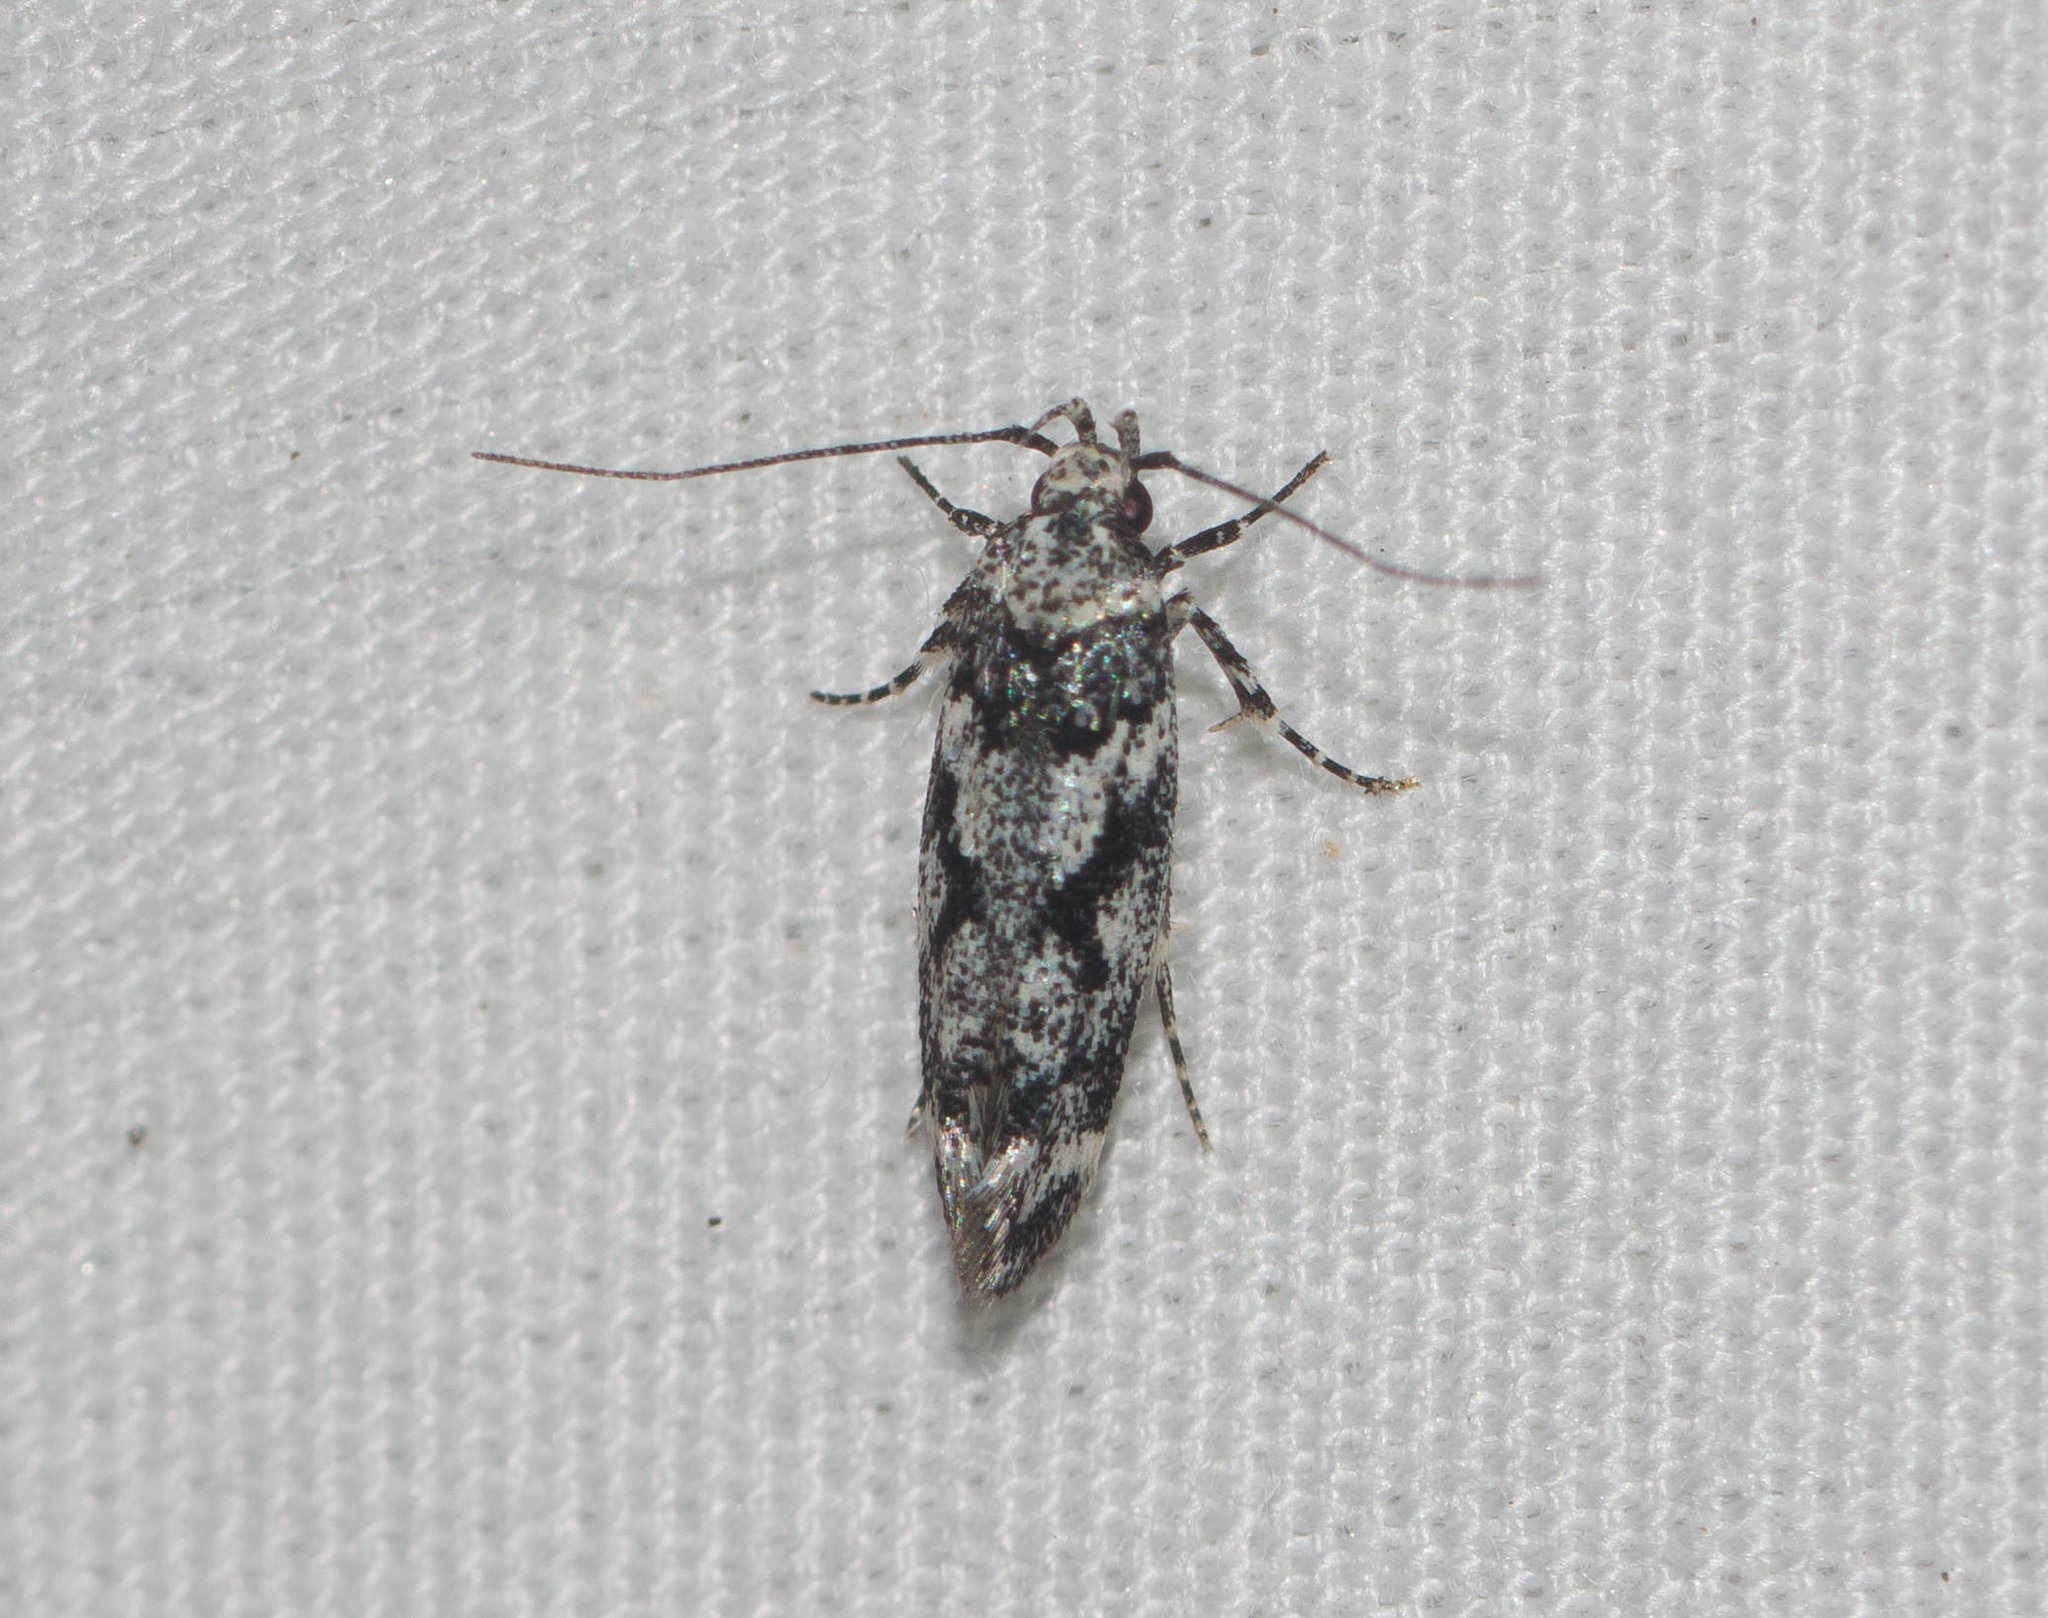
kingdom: Animalia
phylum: Arthropoda
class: Insecta
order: Lepidoptera
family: Cosmopterigidae
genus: Hyposmochoma
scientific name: Hyposmochoma empedota
